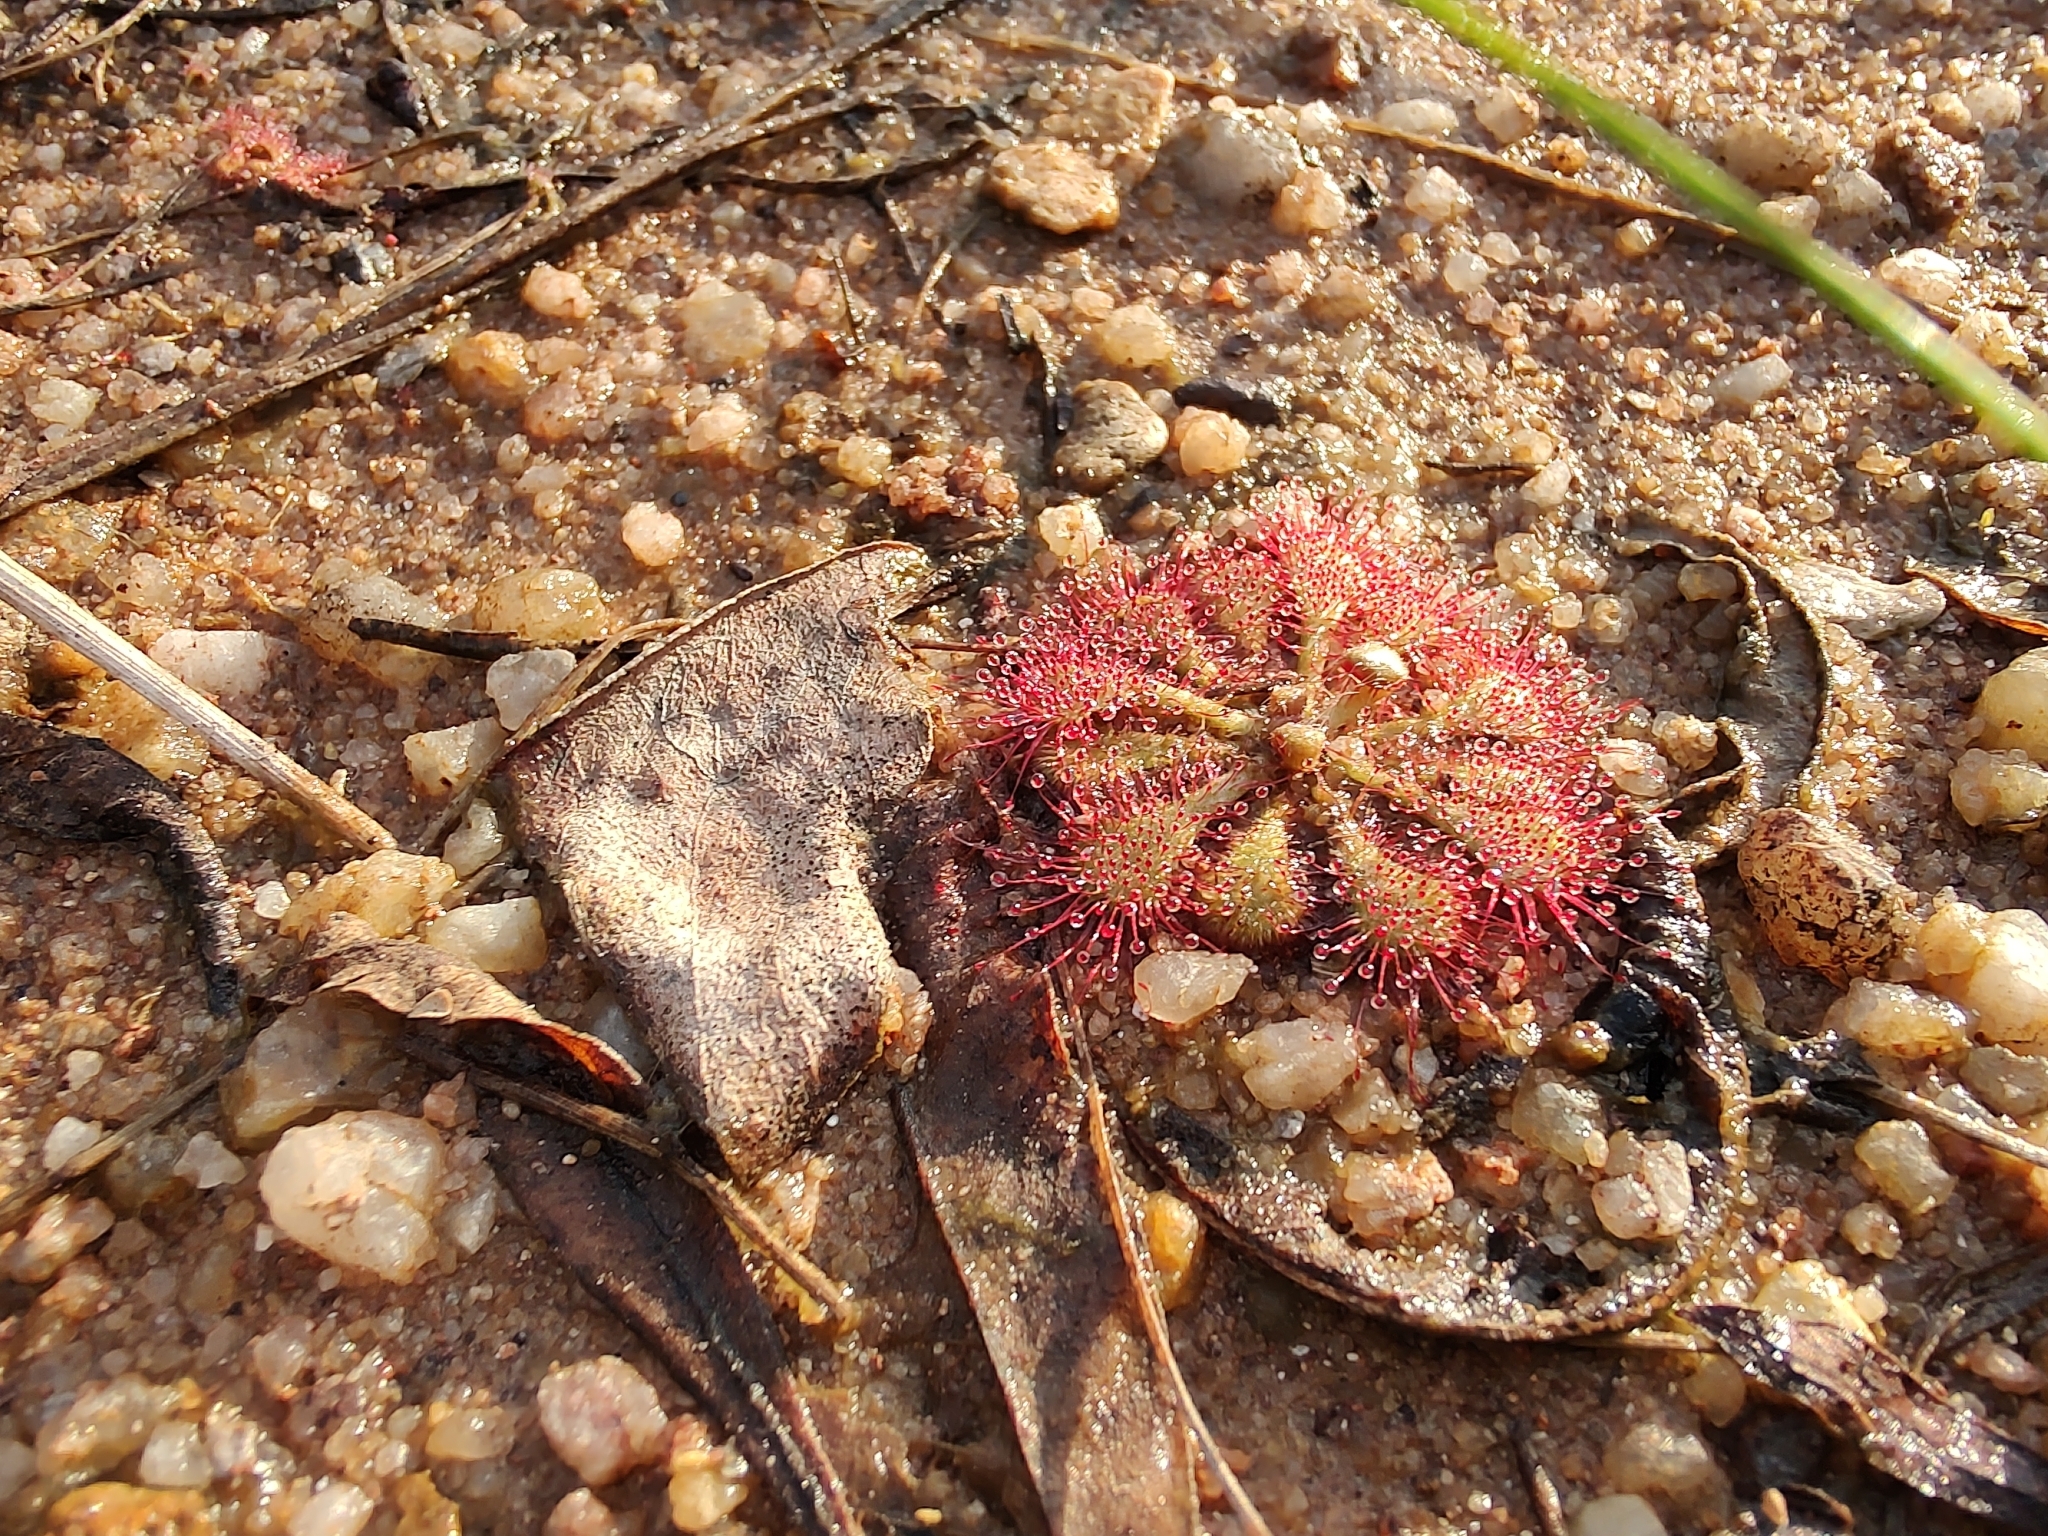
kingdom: Plantae
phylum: Tracheophyta
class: Magnoliopsida
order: Caryophyllales
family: Droseraceae
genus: Drosera
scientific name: Drosera brevifolia
